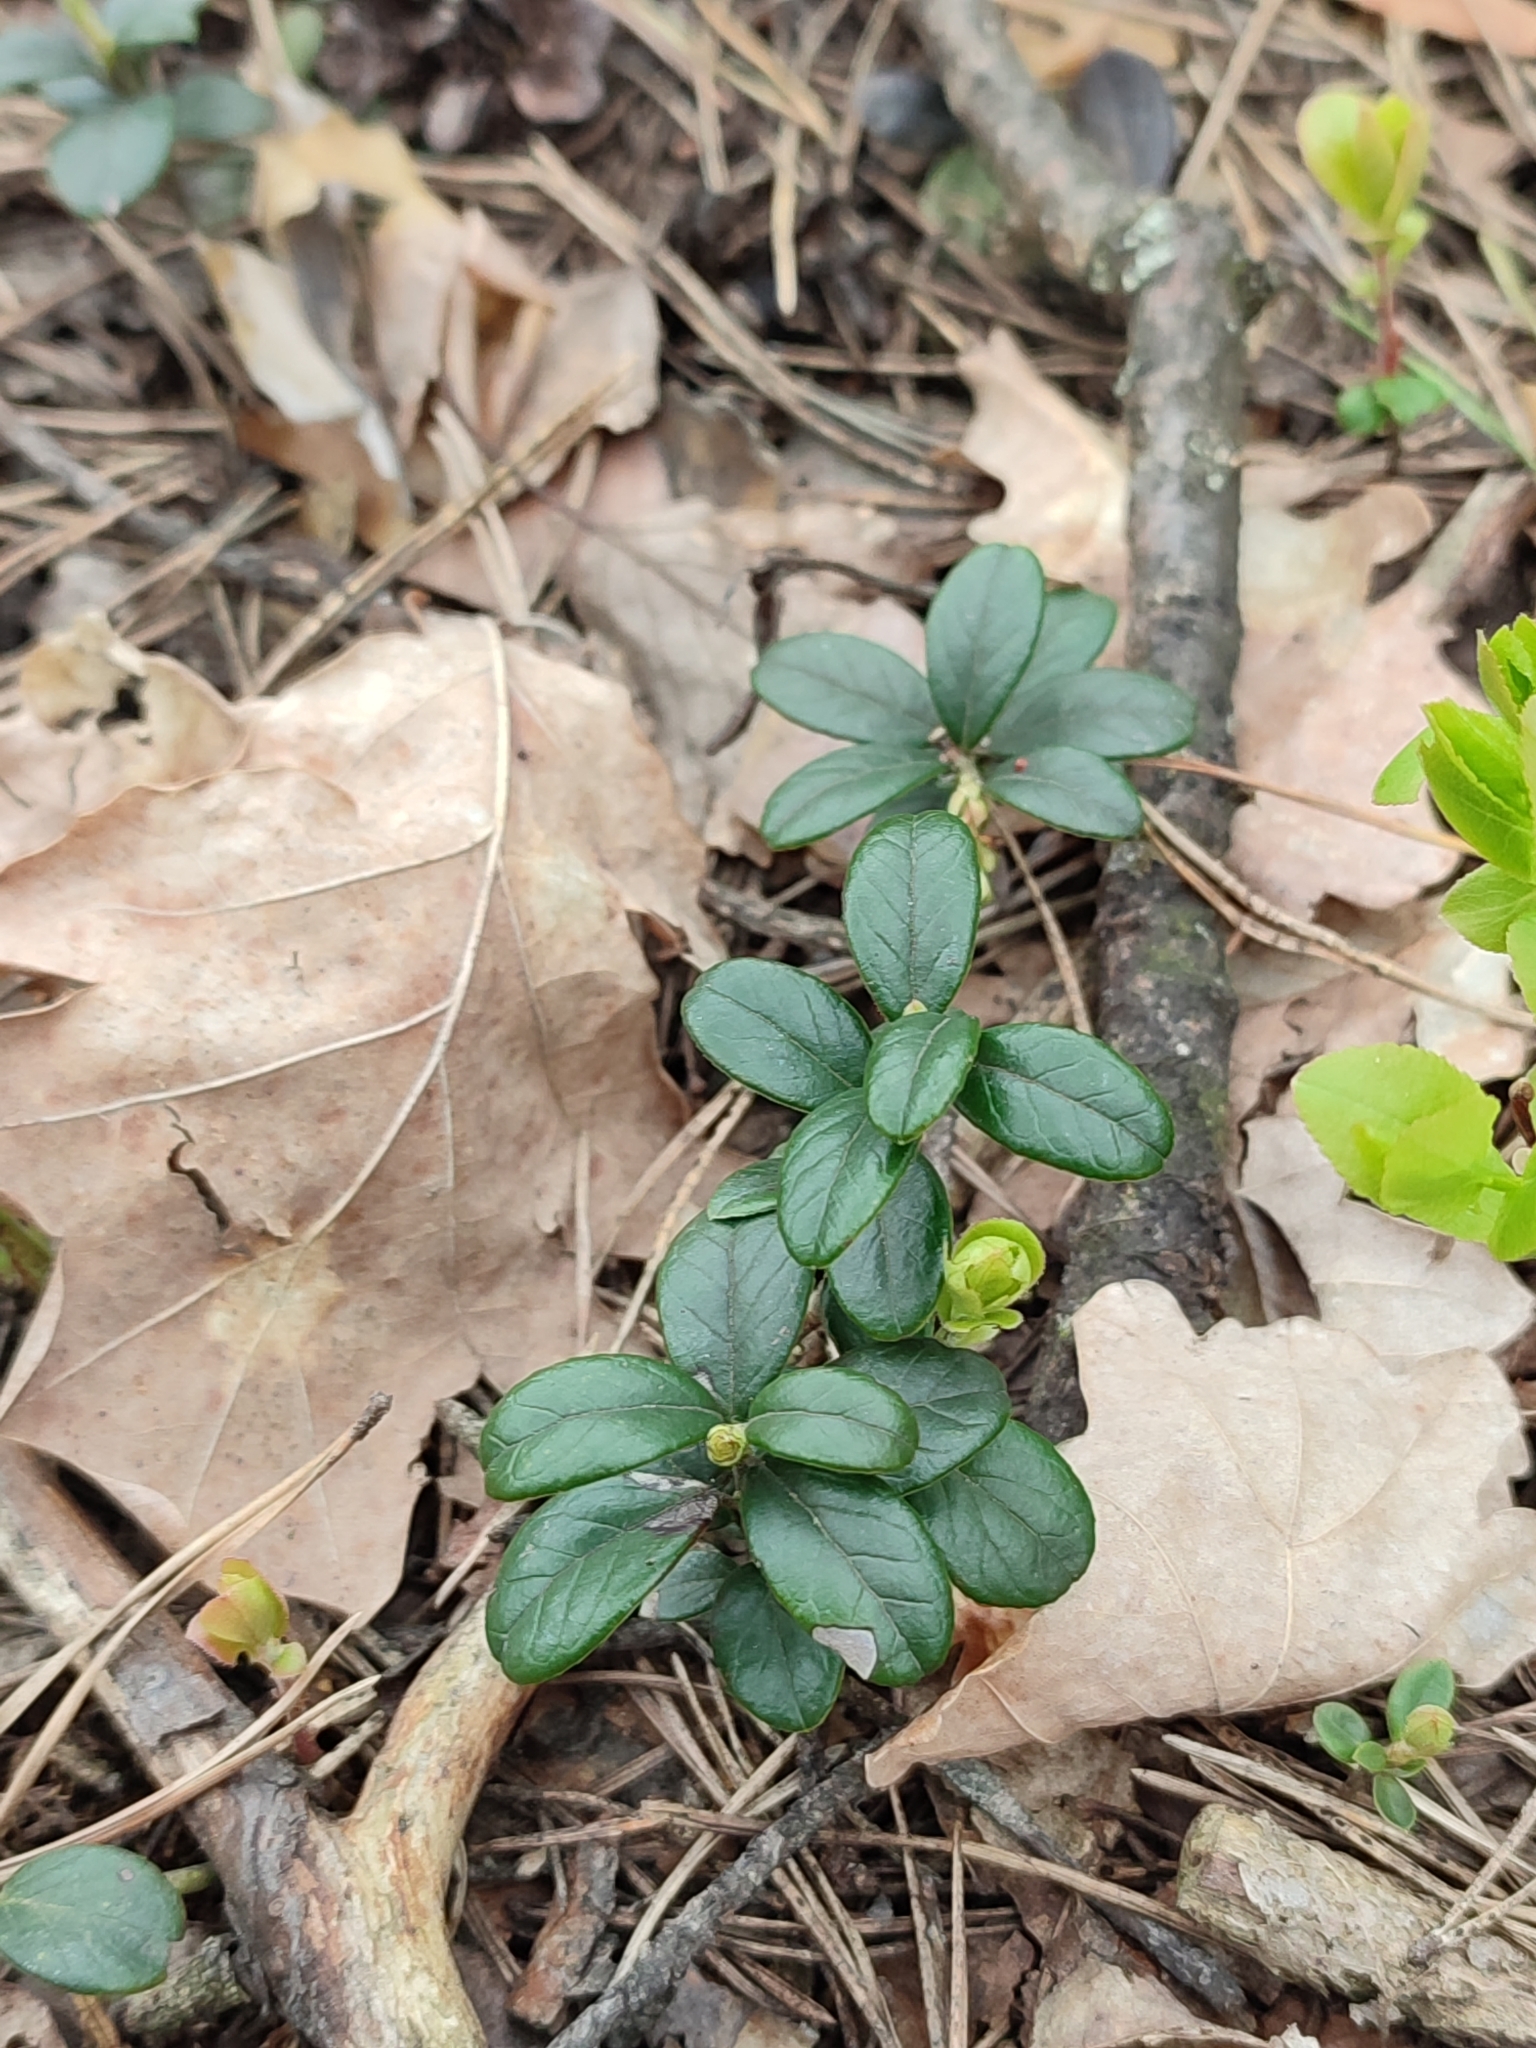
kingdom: Plantae
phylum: Tracheophyta
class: Magnoliopsida
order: Ericales
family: Ericaceae
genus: Vaccinium
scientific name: Vaccinium vitis-idaea
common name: Cowberry
